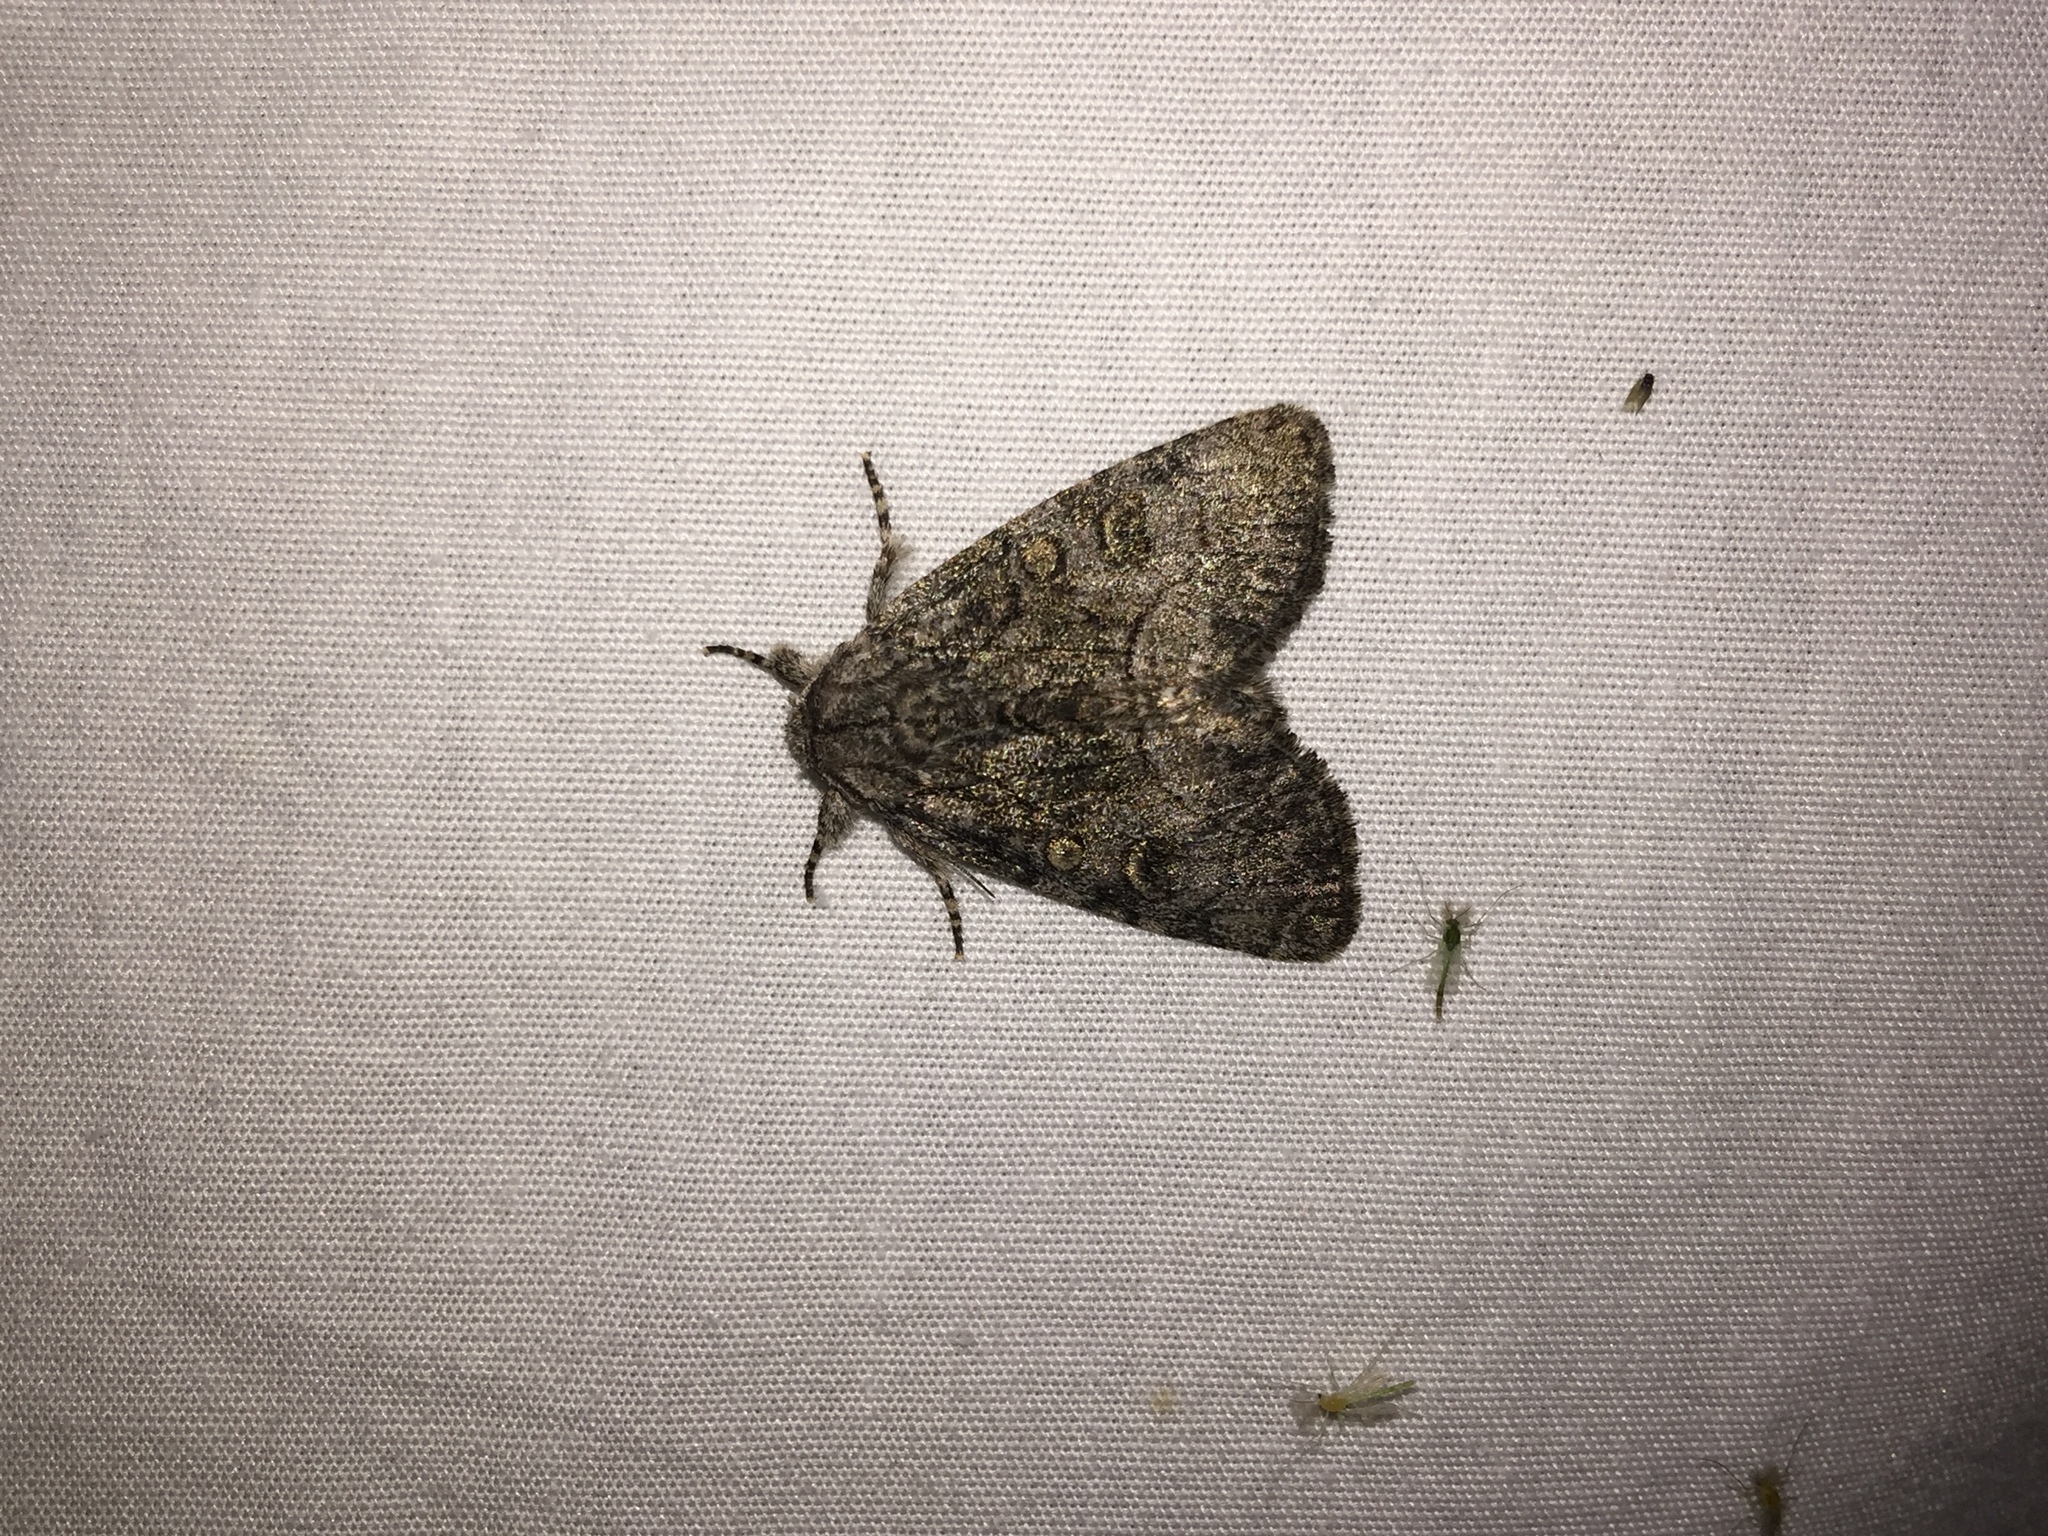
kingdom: Animalia
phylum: Arthropoda
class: Insecta
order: Lepidoptera
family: Noctuidae
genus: Raphia
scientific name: Raphia frater
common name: Brother
